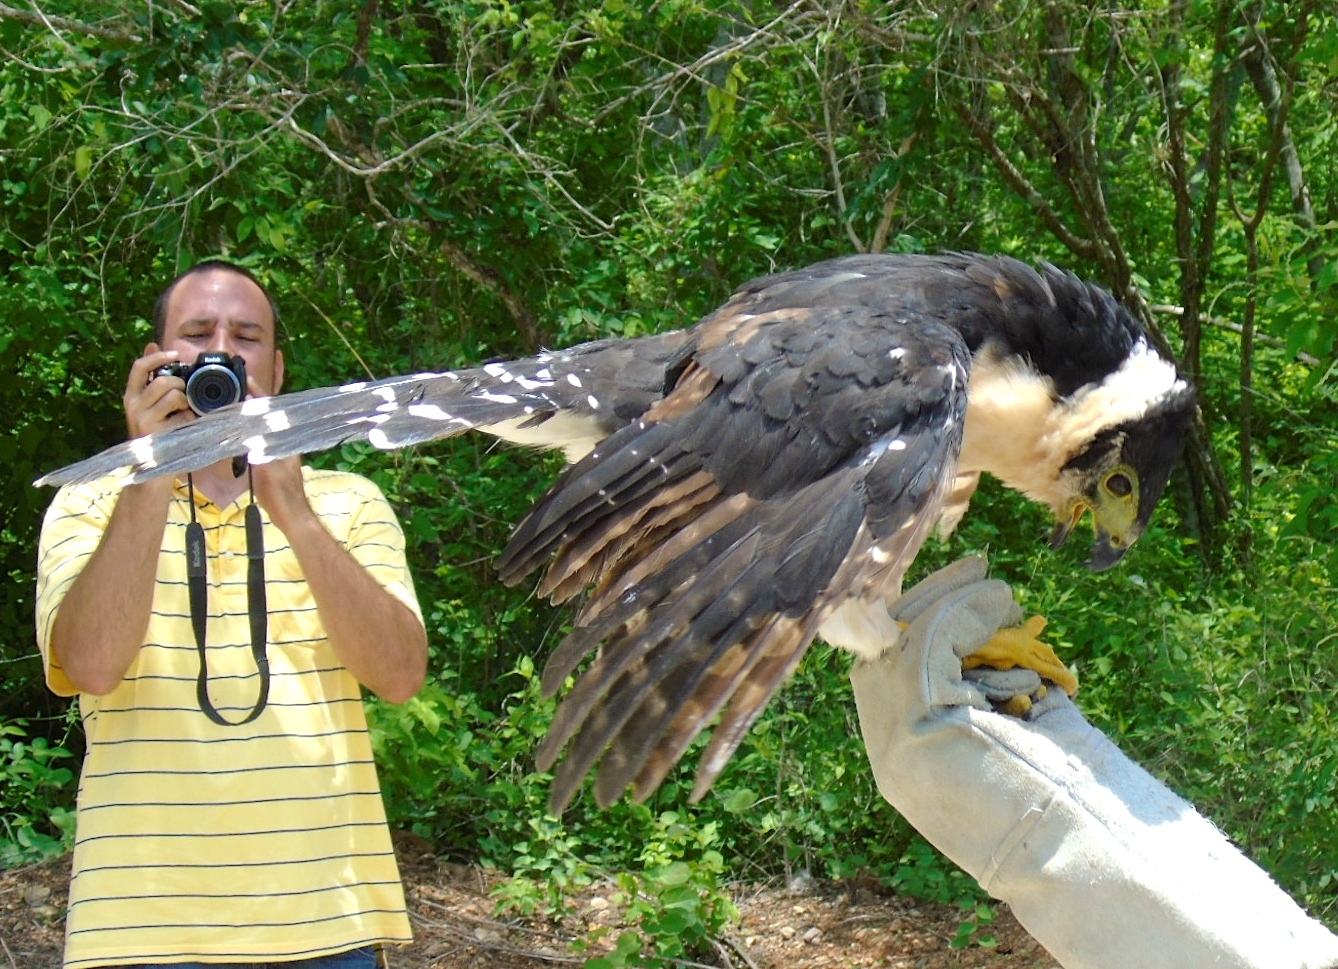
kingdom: Animalia
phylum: Chordata
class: Aves
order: Falconiformes
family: Falconidae
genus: Micrastur
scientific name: Micrastur semitorquatus
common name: Collared forest-falcon
